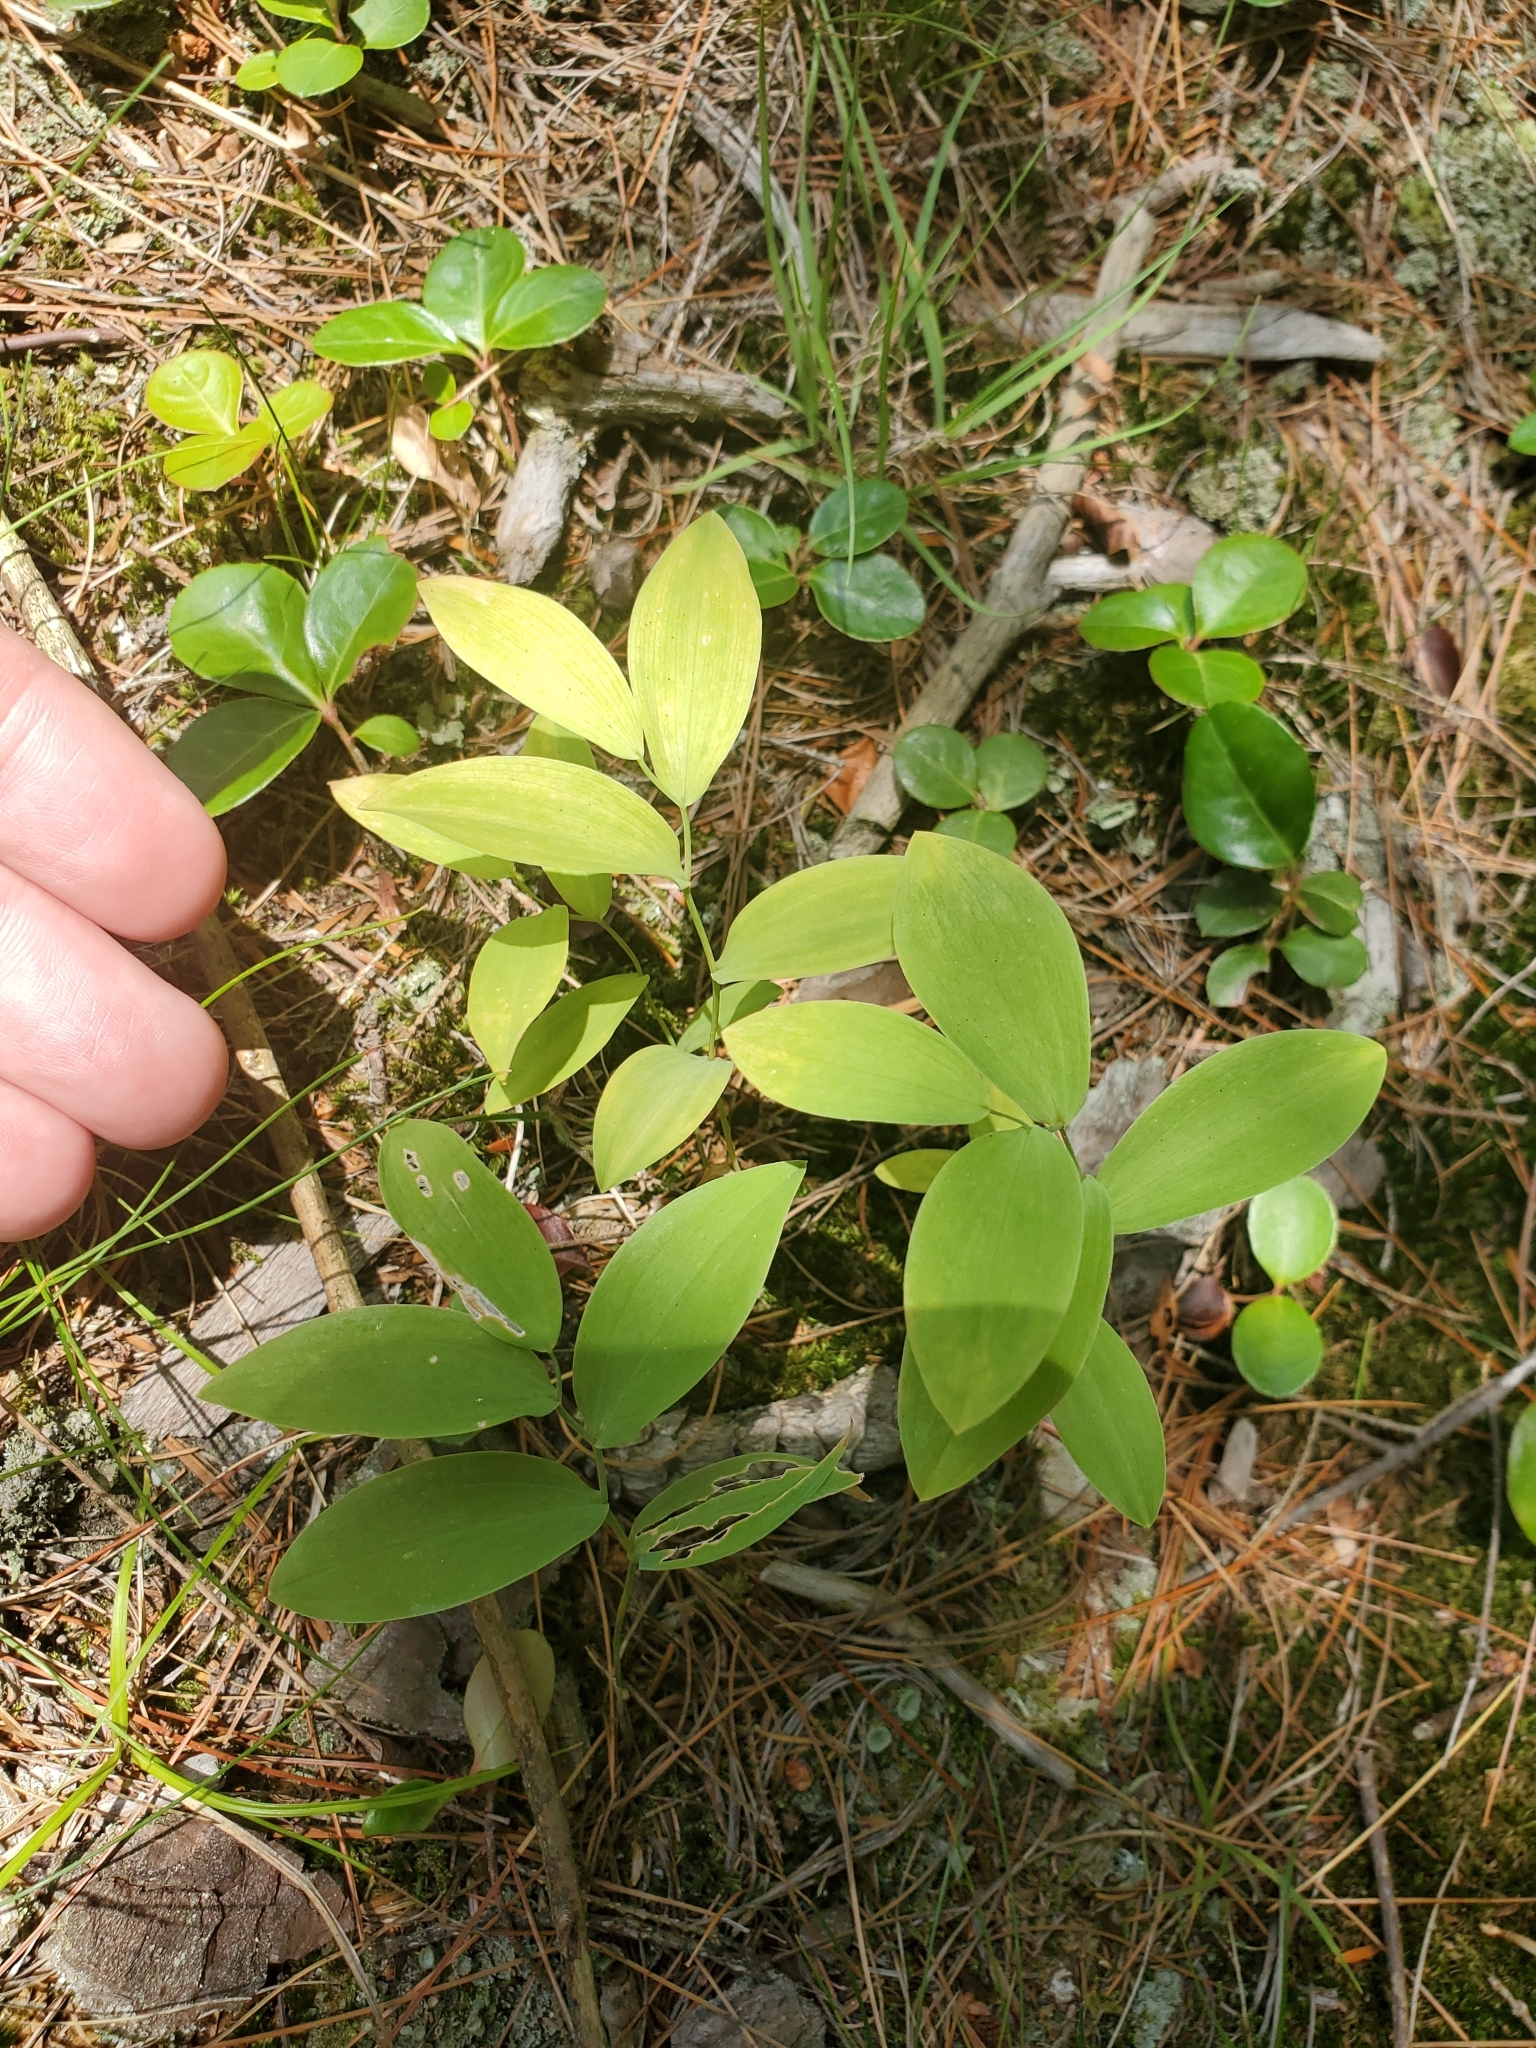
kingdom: Plantae
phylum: Tracheophyta
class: Liliopsida
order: Liliales
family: Colchicaceae
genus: Uvularia
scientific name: Uvularia sessilifolia
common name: Straw-lily
